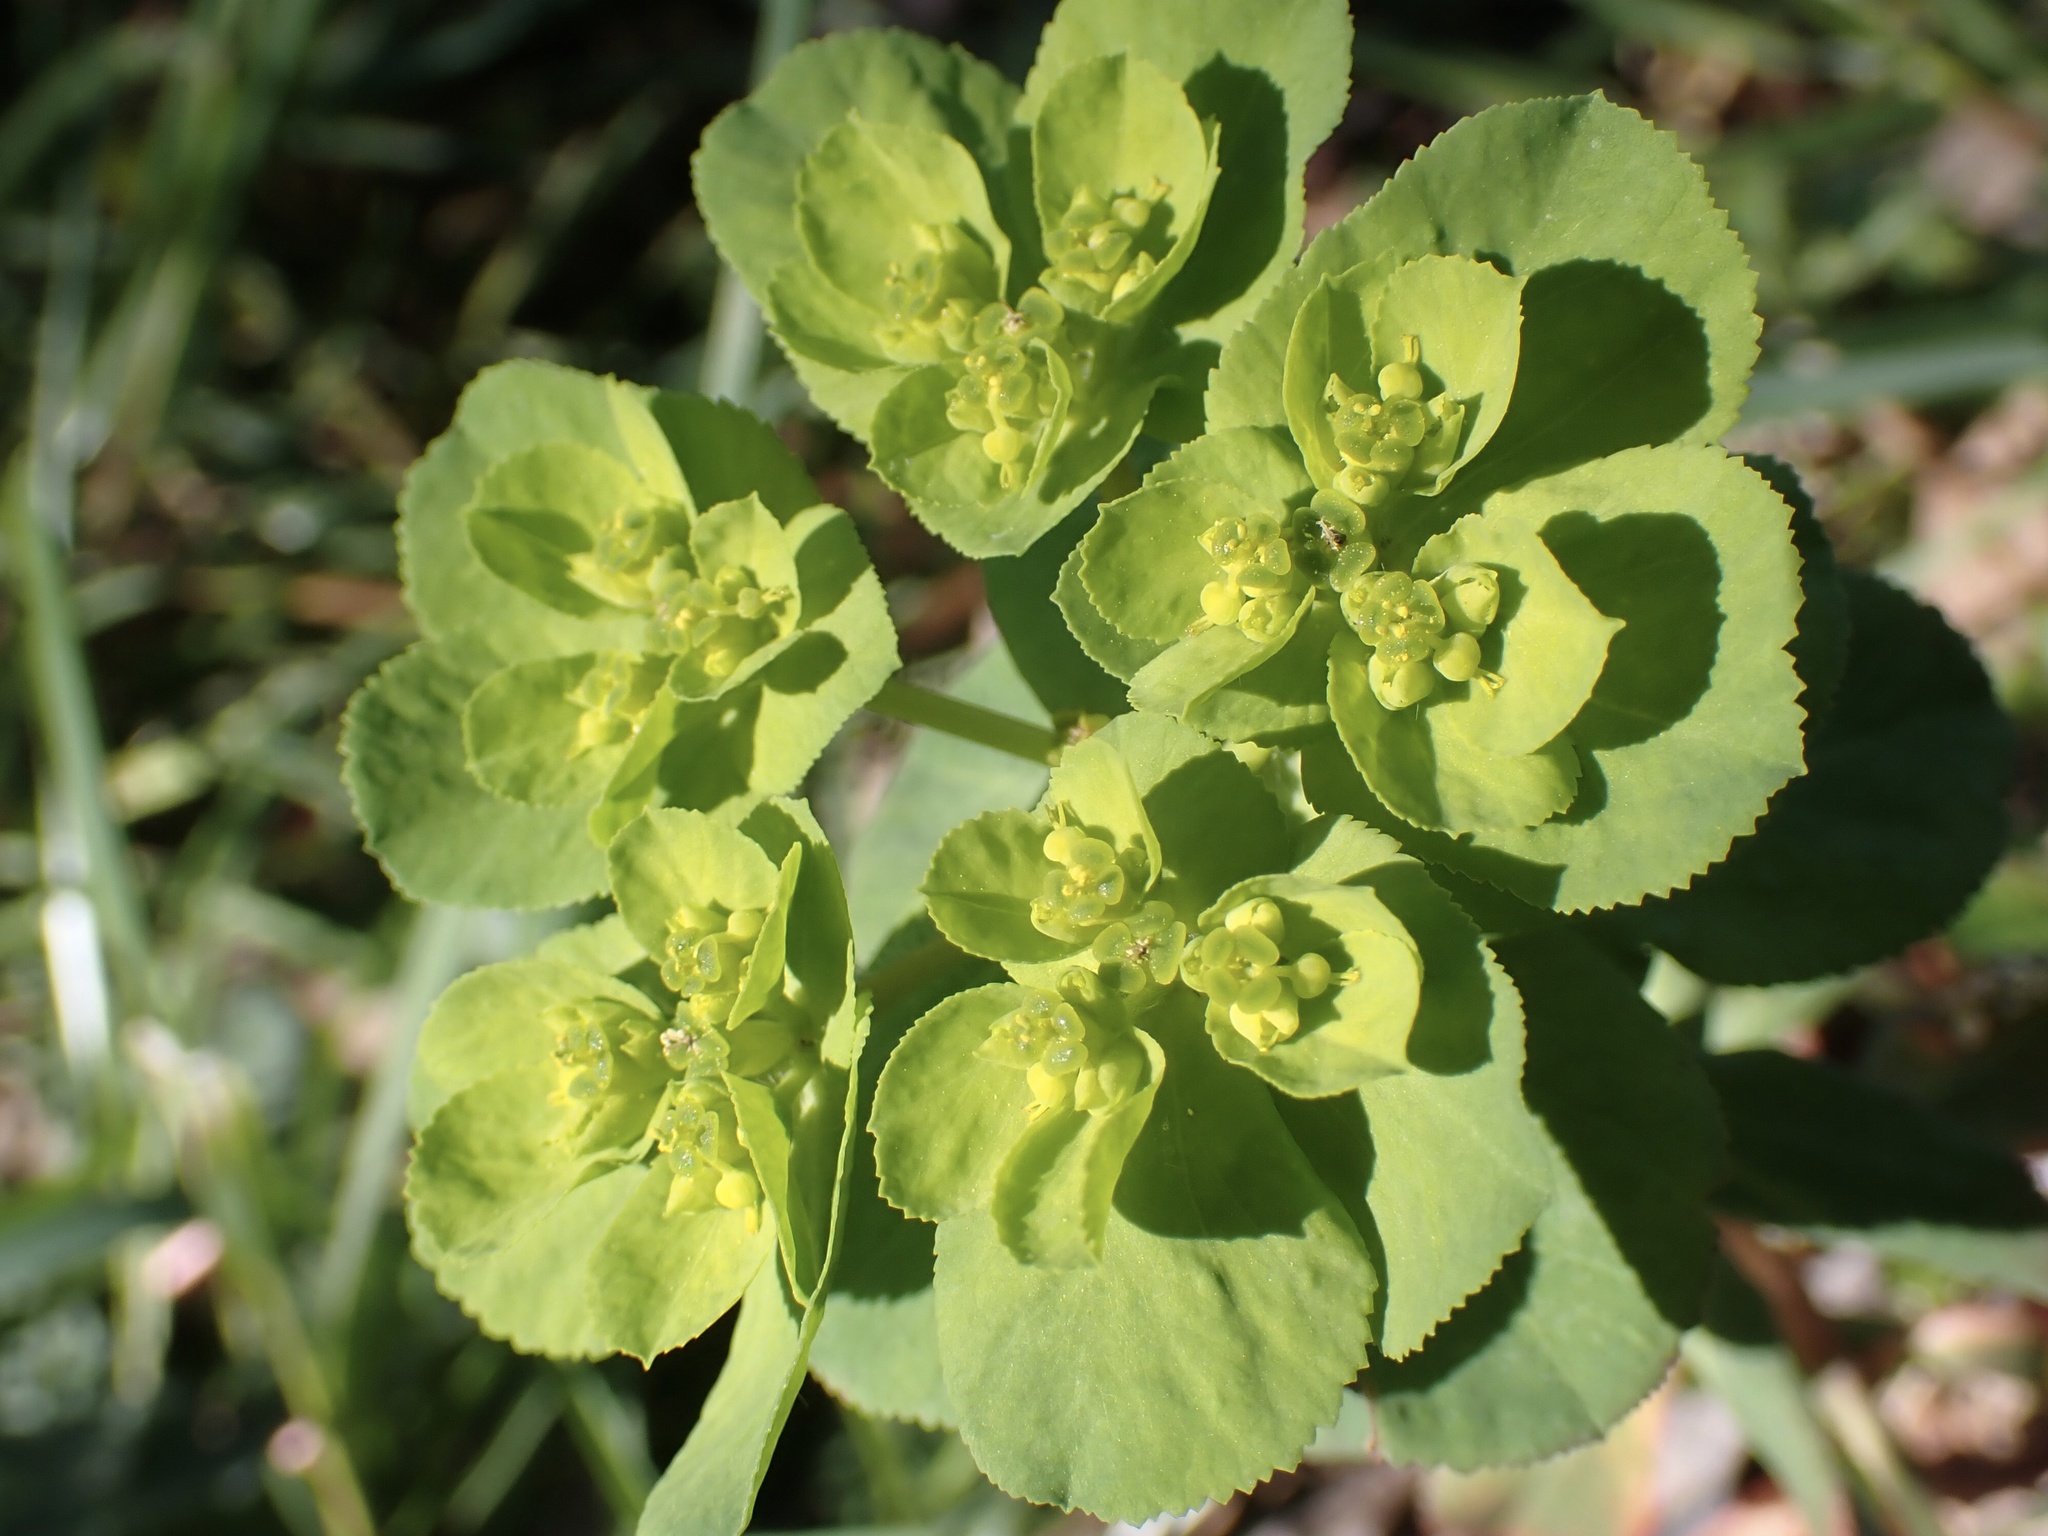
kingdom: Plantae
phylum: Tracheophyta
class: Magnoliopsida
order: Malpighiales
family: Euphorbiaceae
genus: Euphorbia
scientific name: Euphorbia helioscopia
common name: Sun spurge
